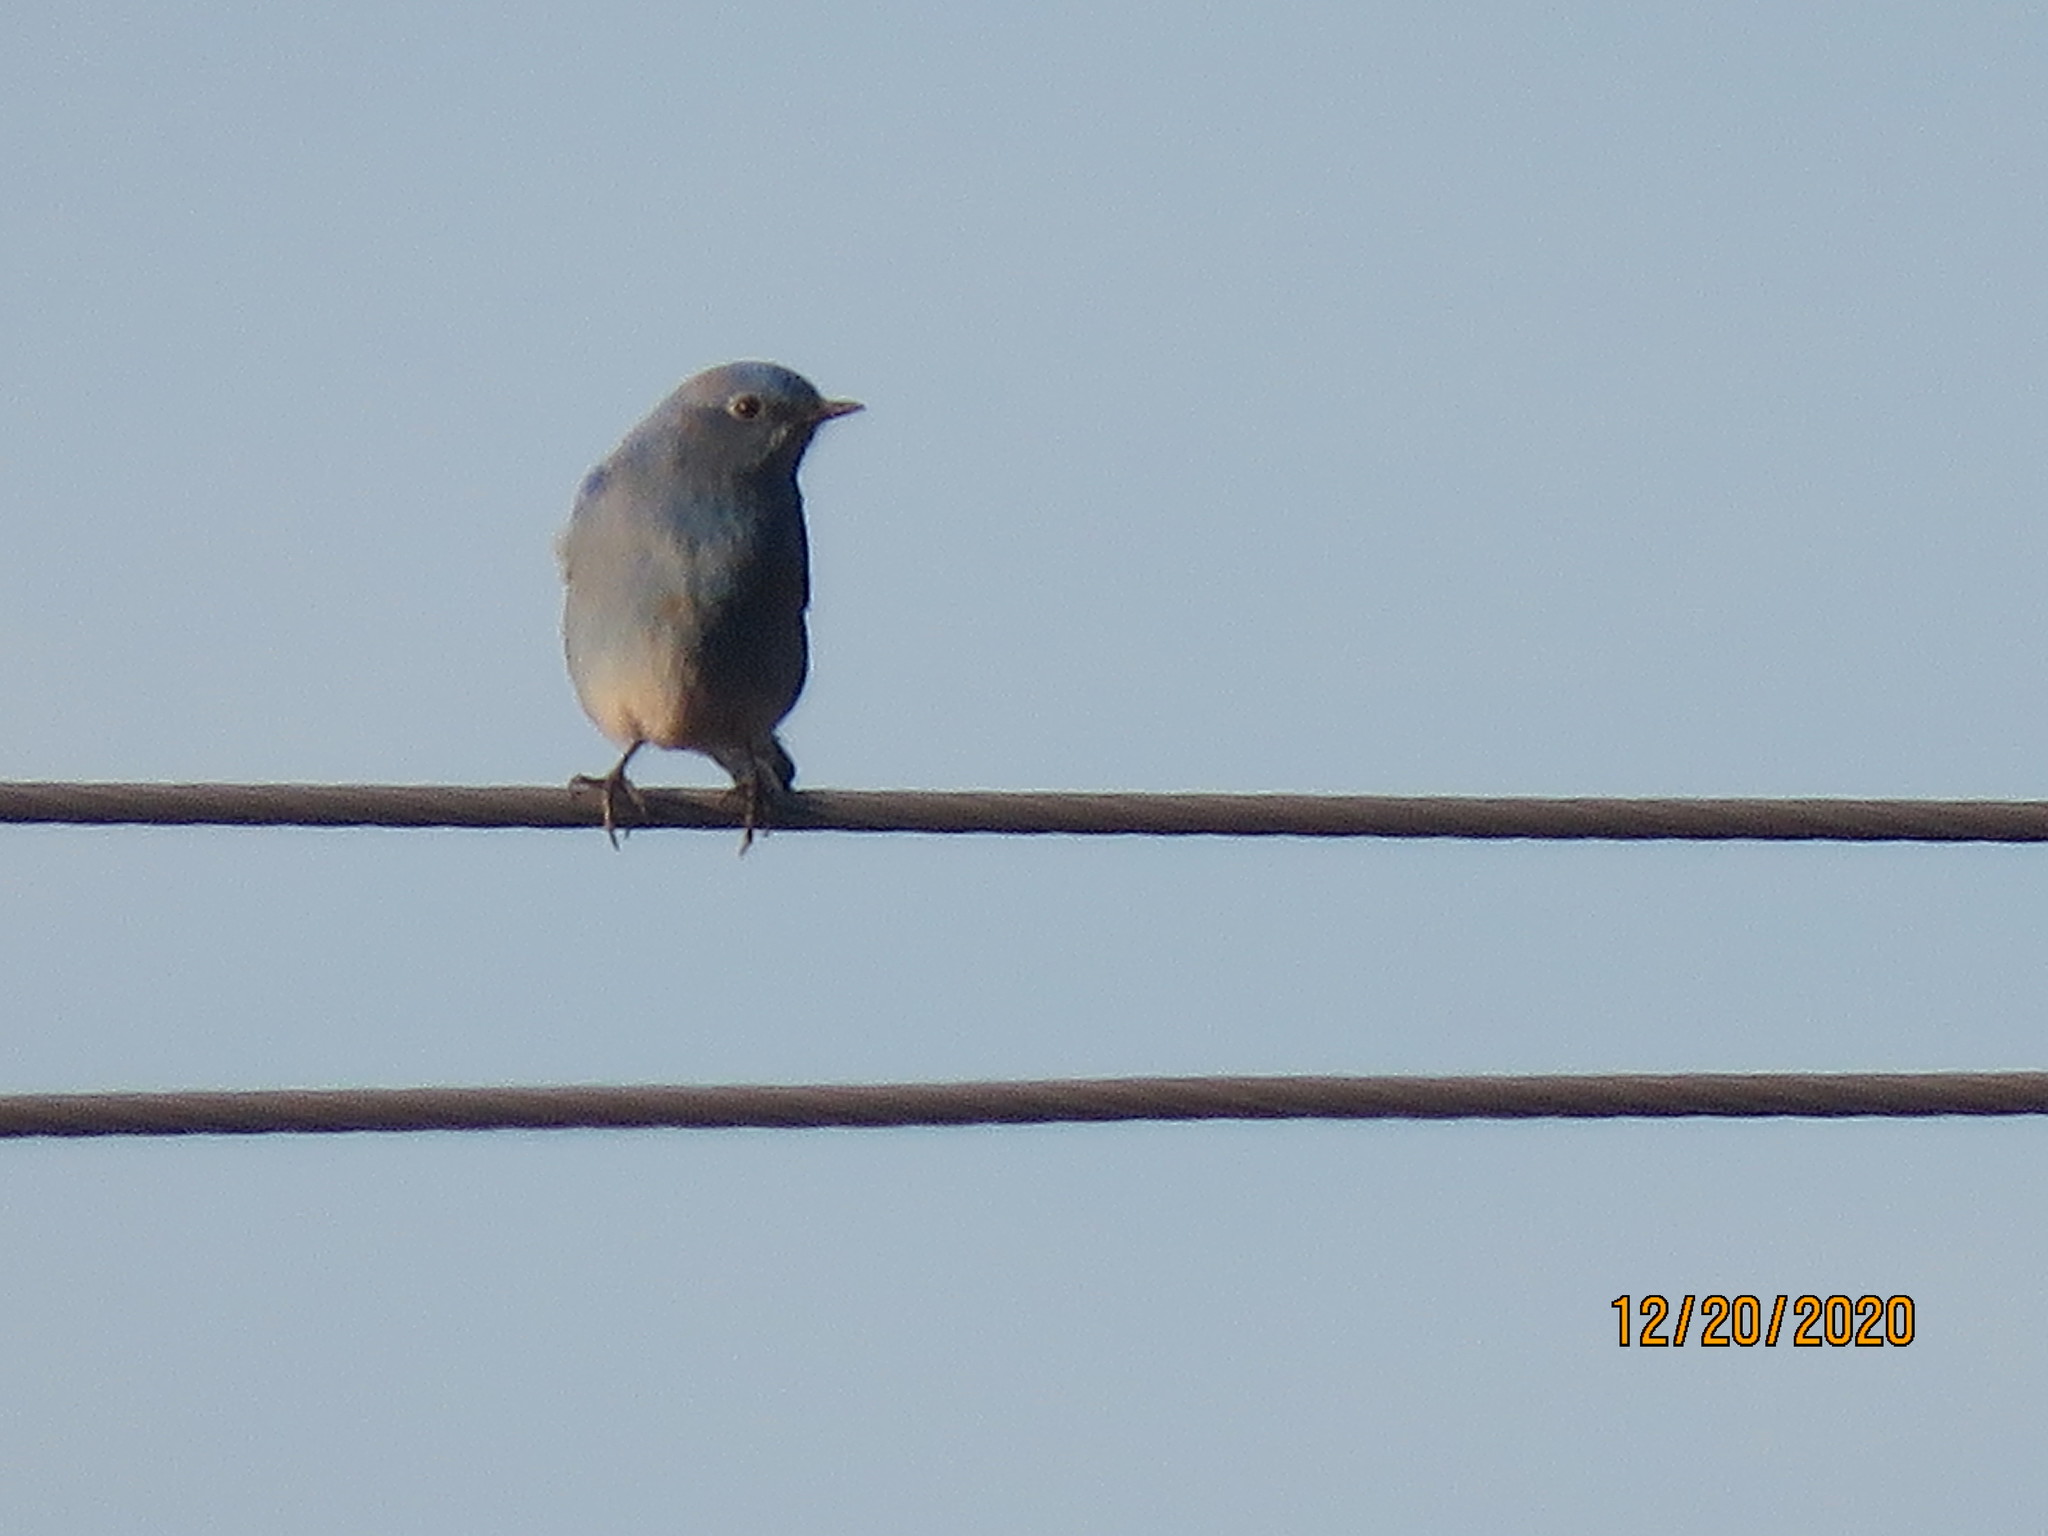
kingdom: Animalia
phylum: Chordata
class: Aves
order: Passeriformes
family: Turdidae
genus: Sialia
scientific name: Sialia currucoides
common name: Mountain bluebird
